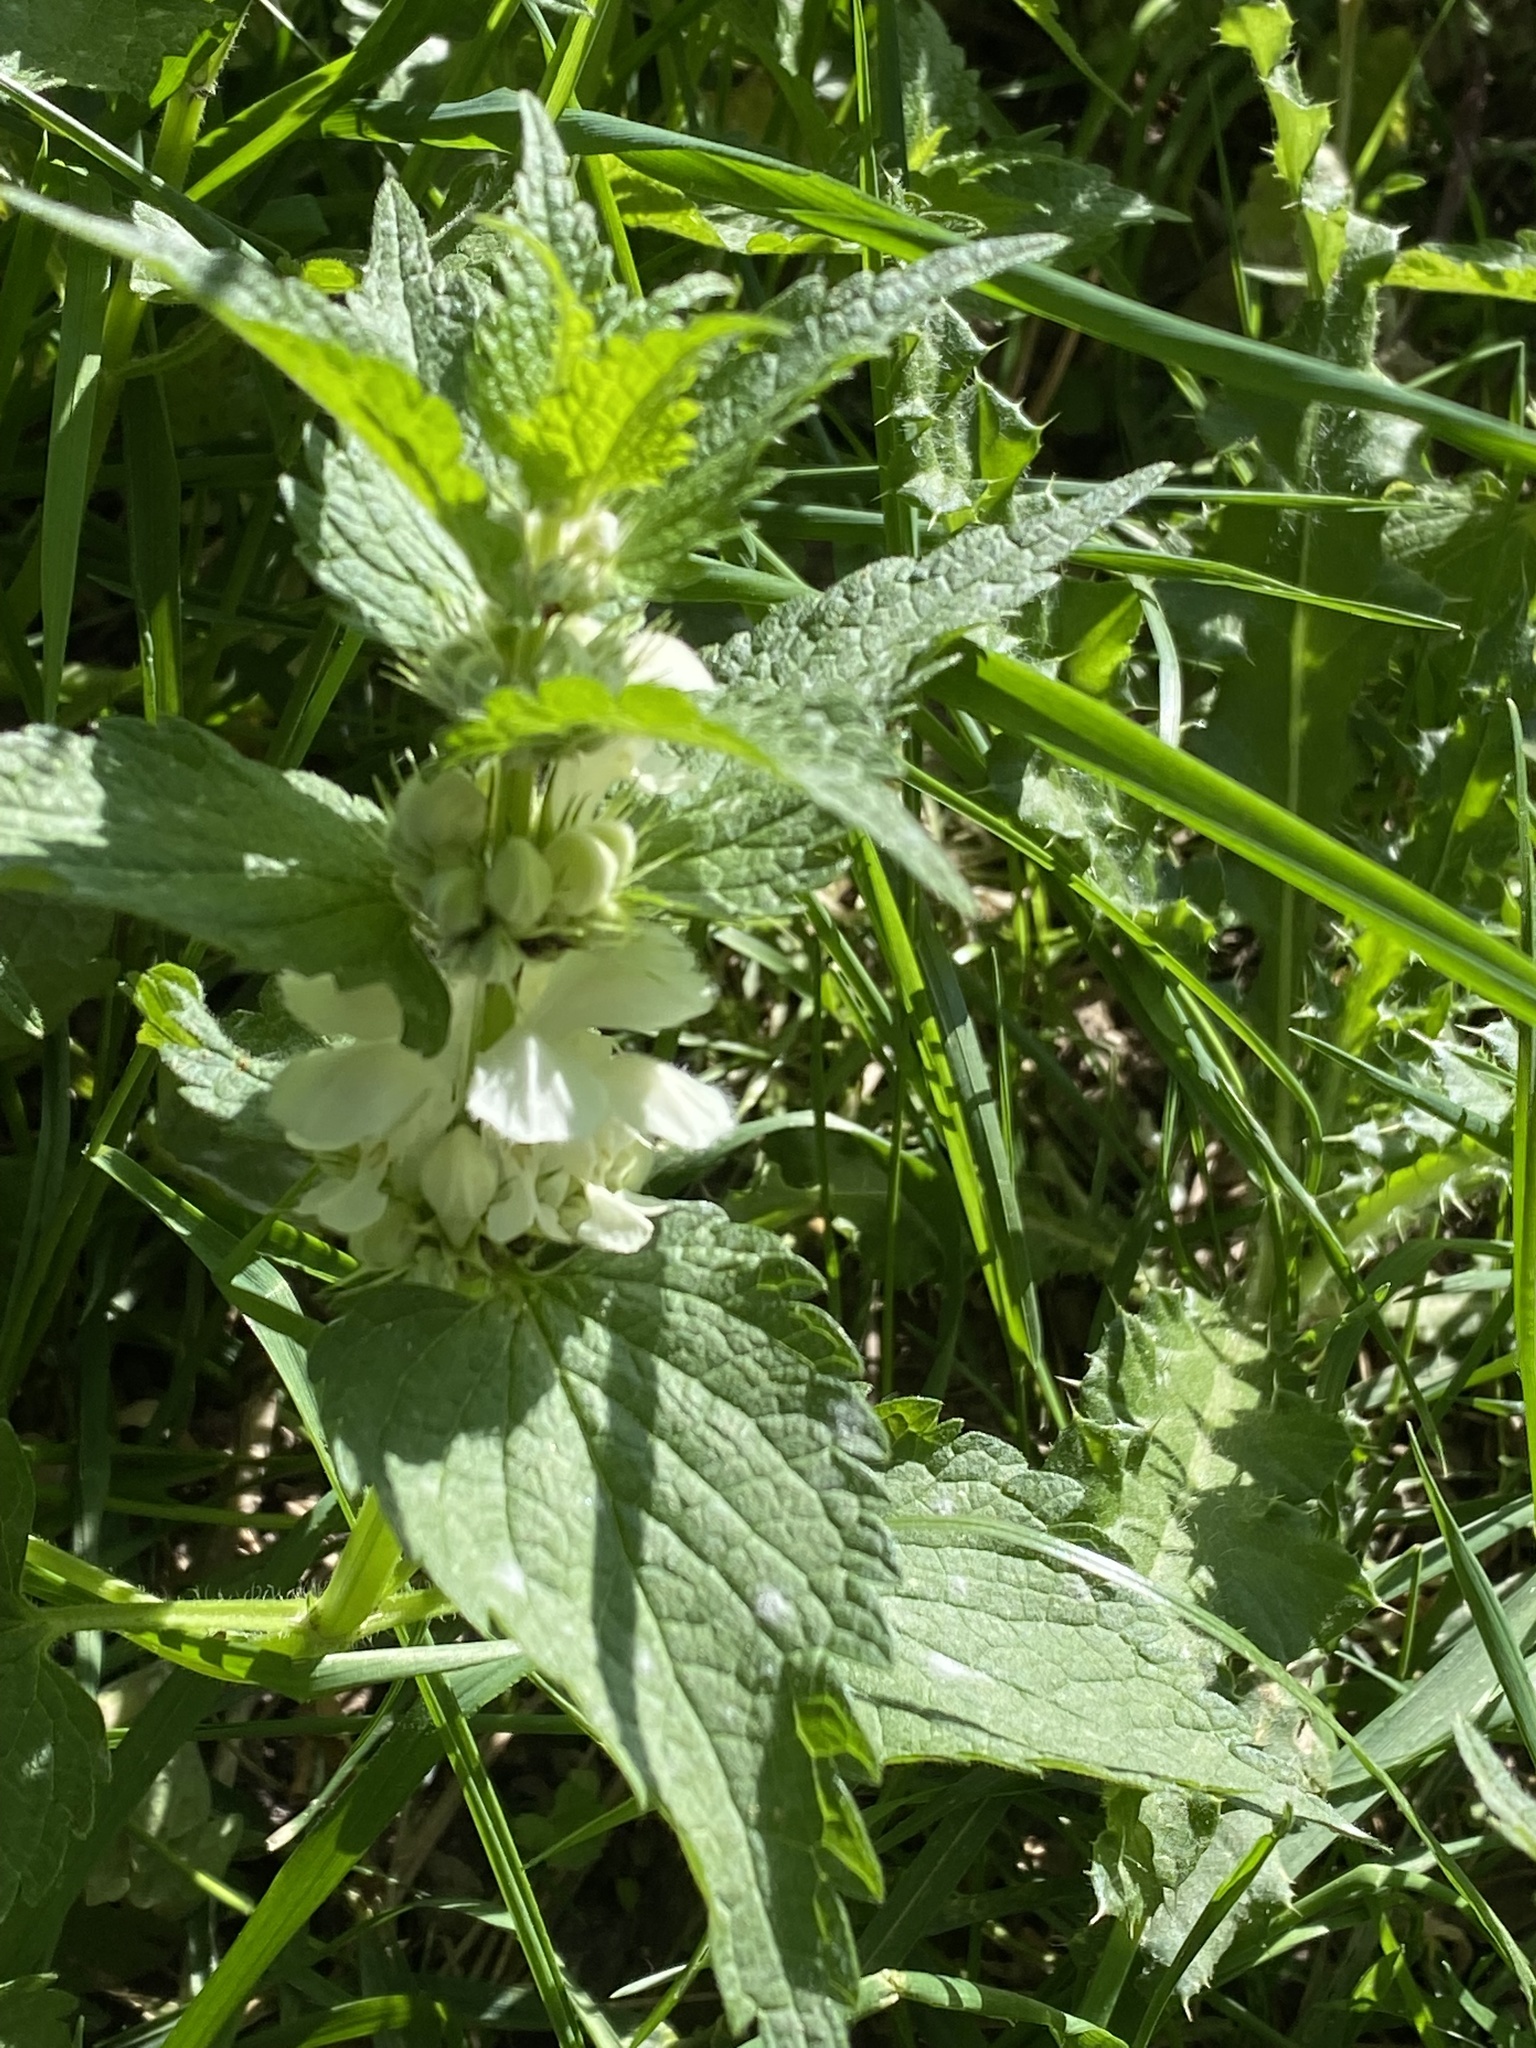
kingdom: Plantae
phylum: Tracheophyta
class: Magnoliopsida
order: Lamiales
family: Lamiaceae
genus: Lamium
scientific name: Lamium album
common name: White dead-nettle
